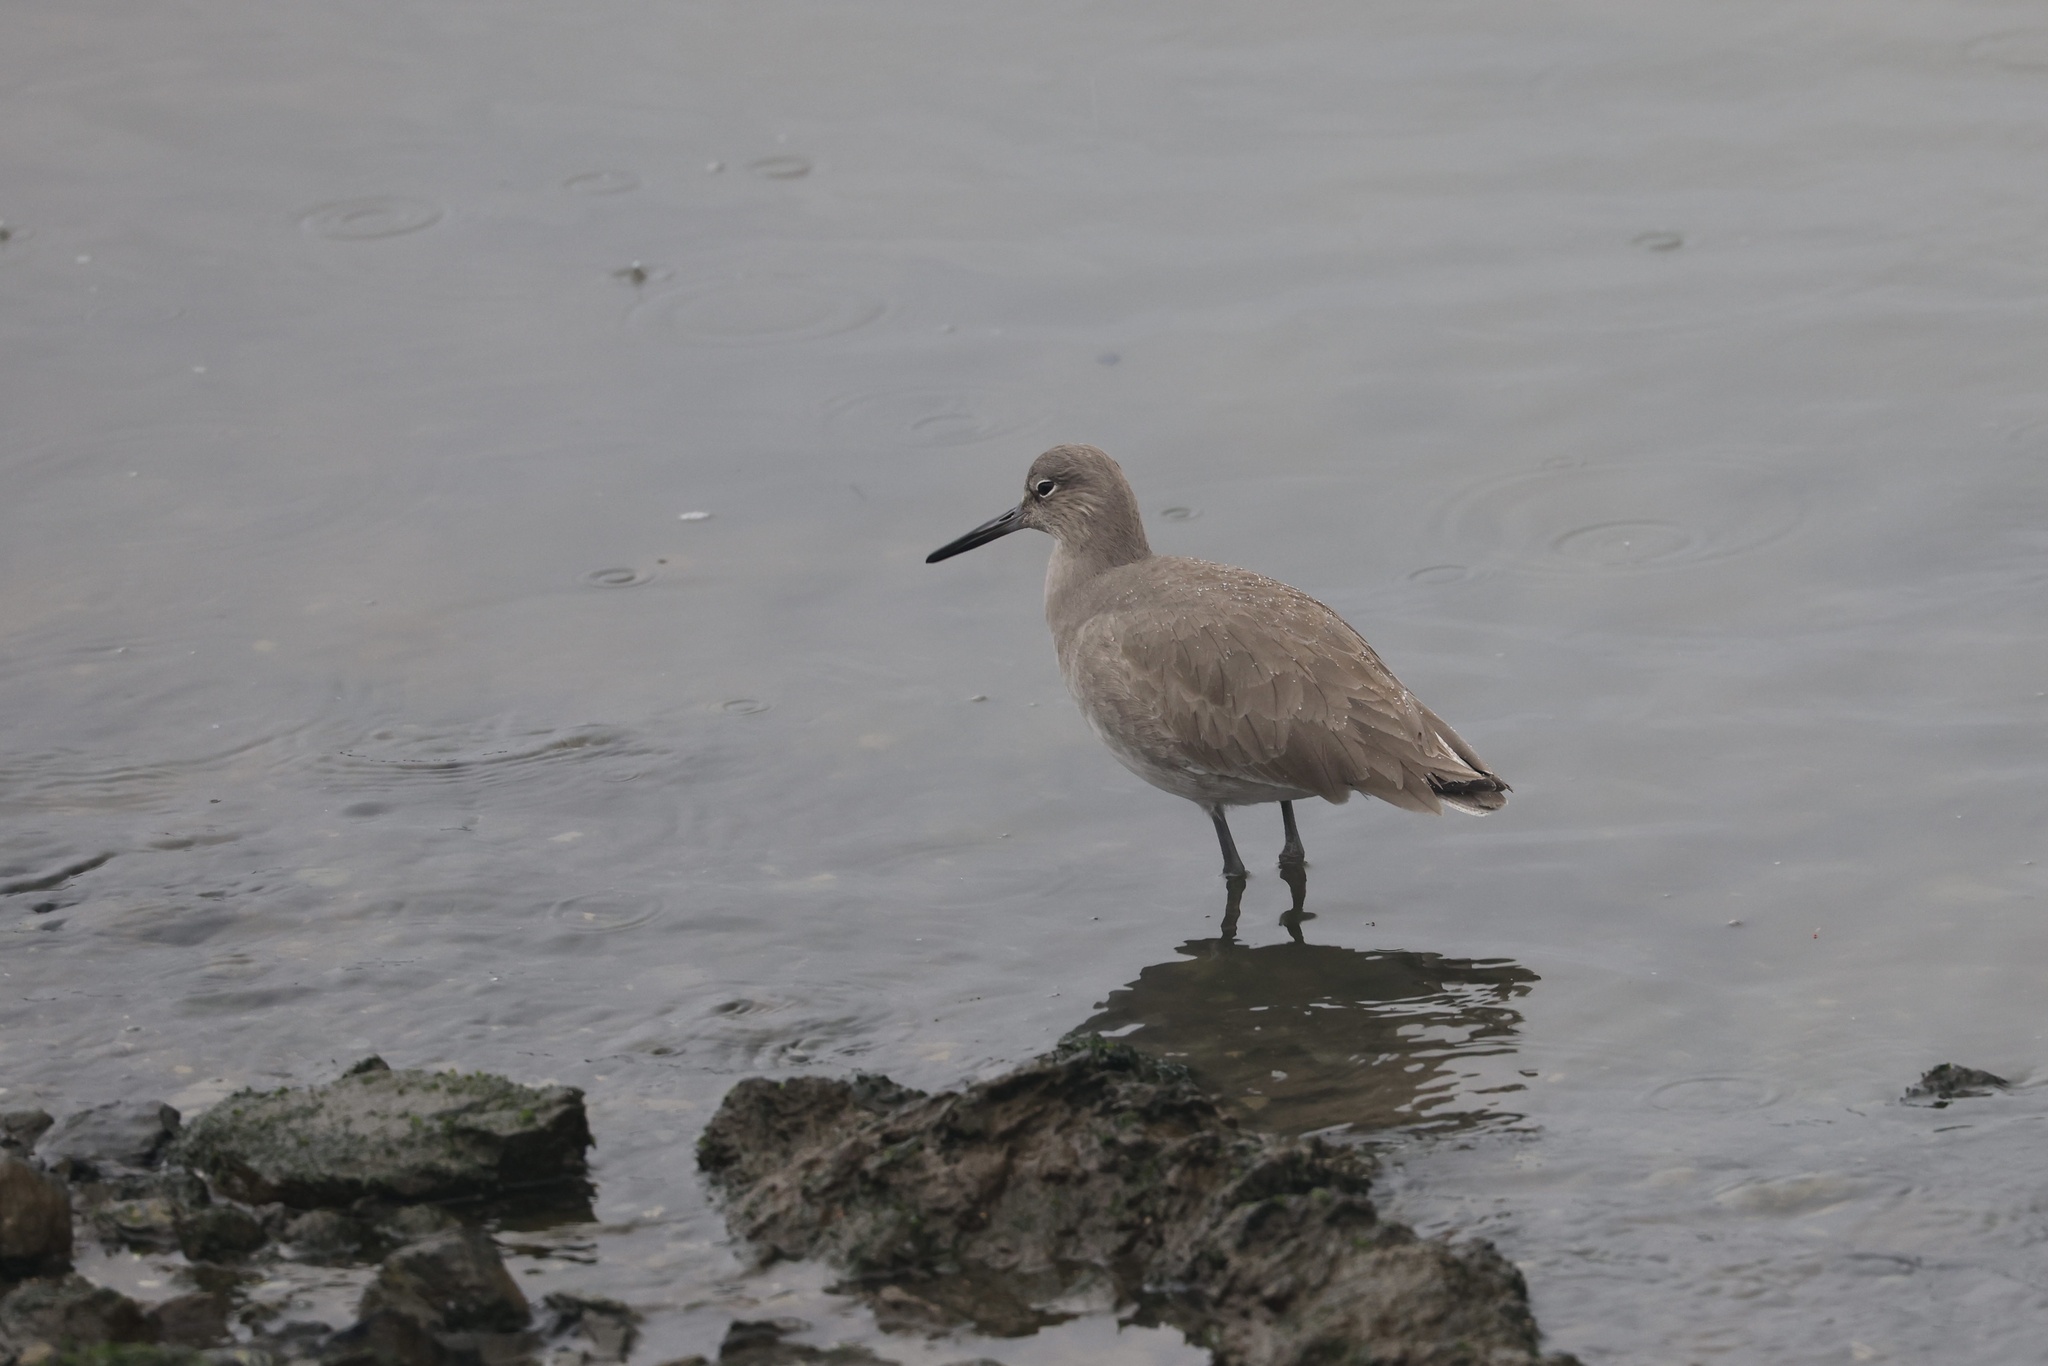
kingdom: Animalia
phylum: Chordata
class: Aves
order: Charadriiformes
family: Scolopacidae
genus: Tringa
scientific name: Tringa semipalmata
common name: Willet
